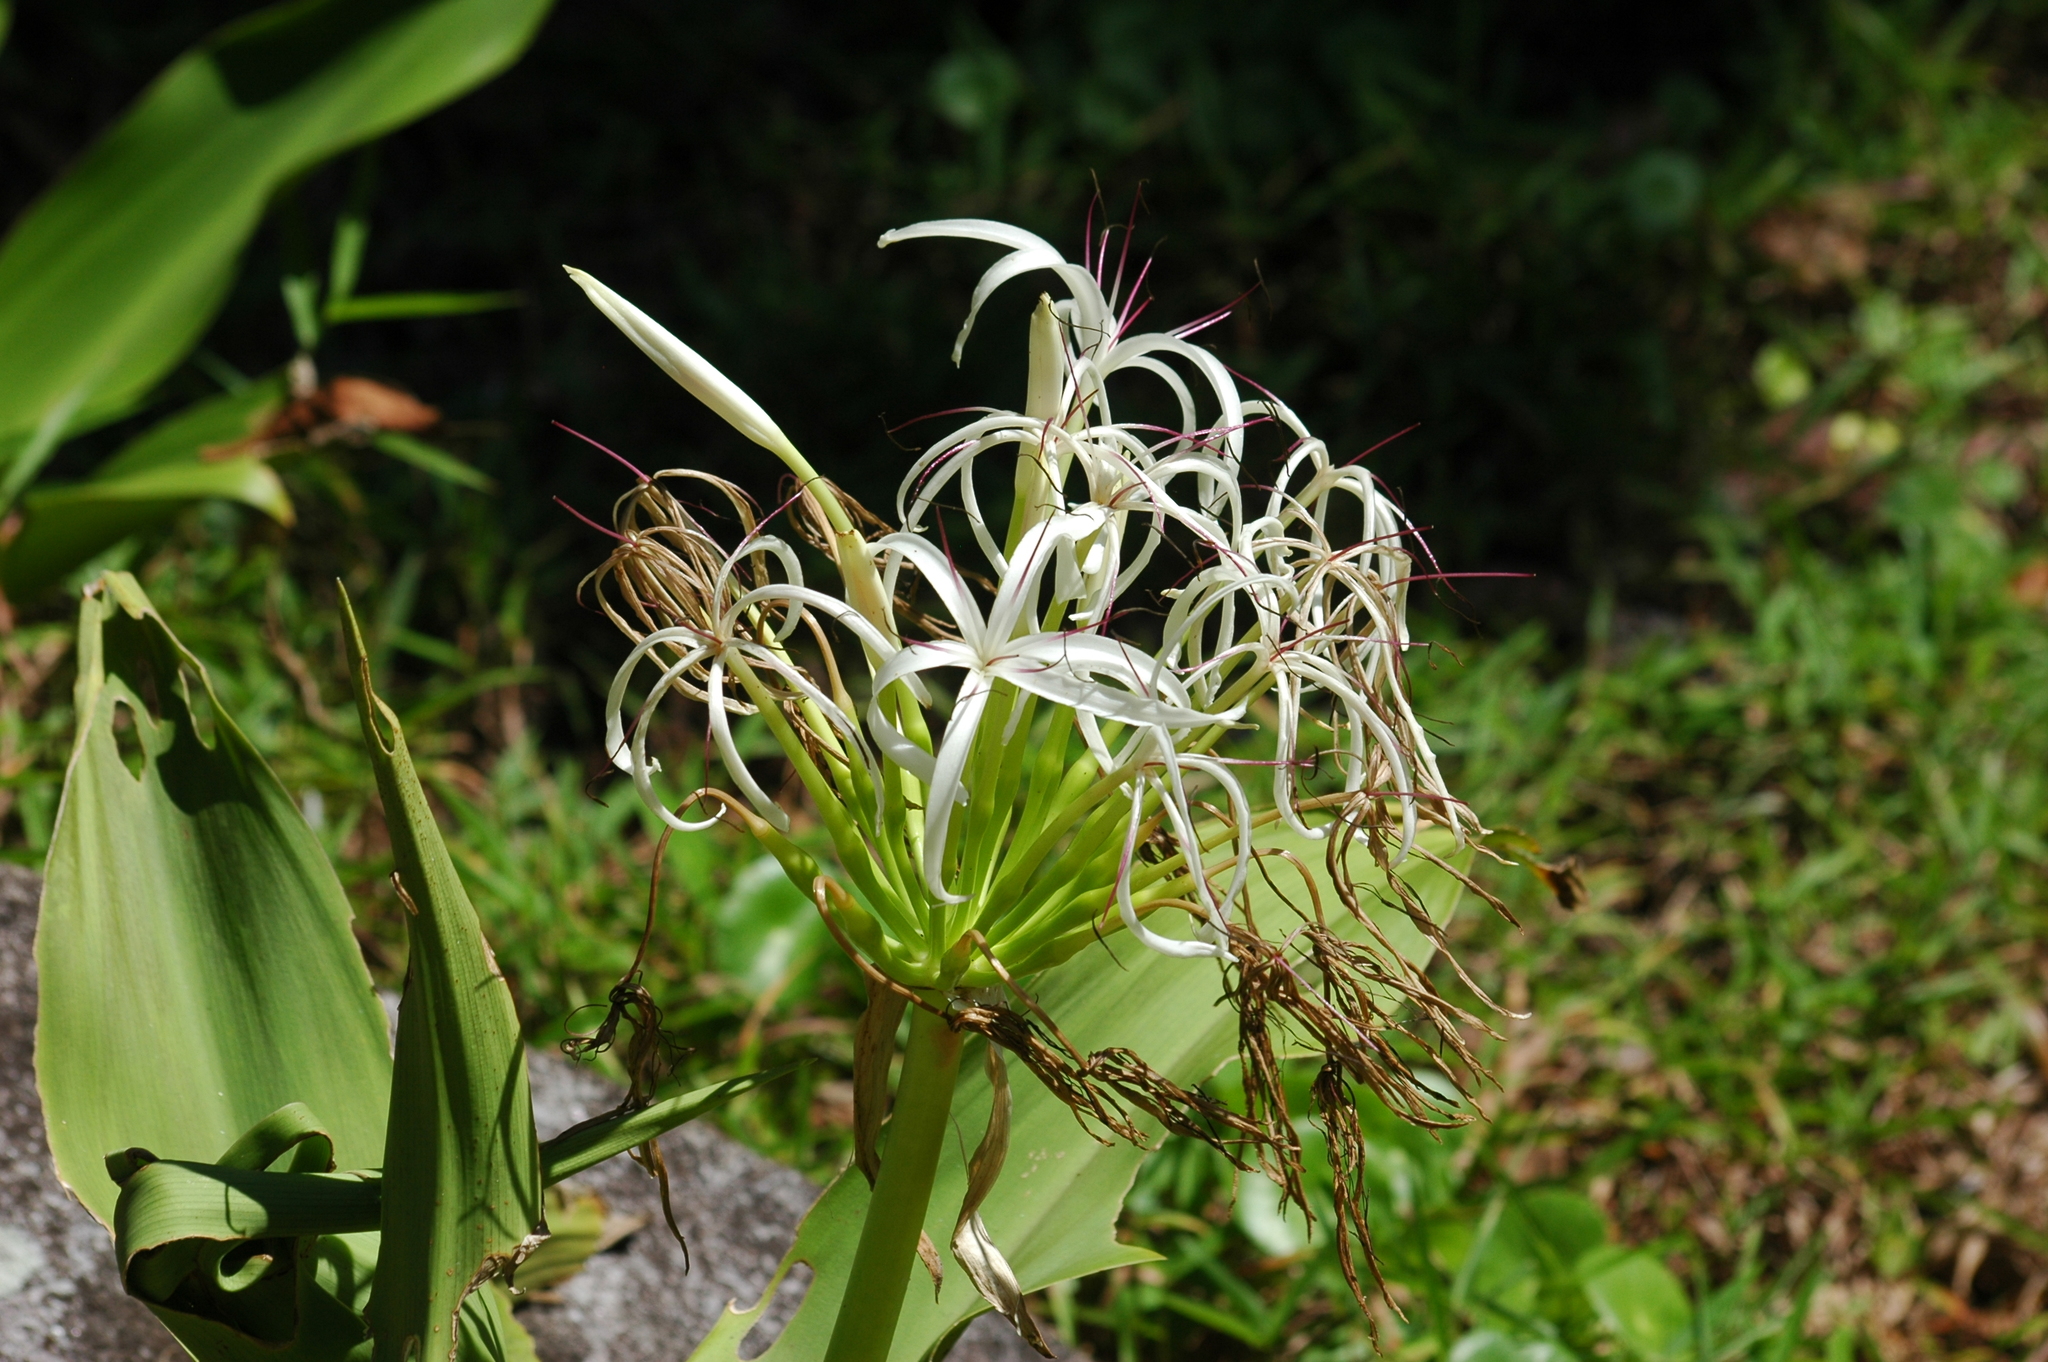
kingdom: Plantae
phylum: Tracheophyta
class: Liliopsida
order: Asparagales
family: Amaryllidaceae
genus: Crinum
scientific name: Crinum asiaticum
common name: Poisonbulb
